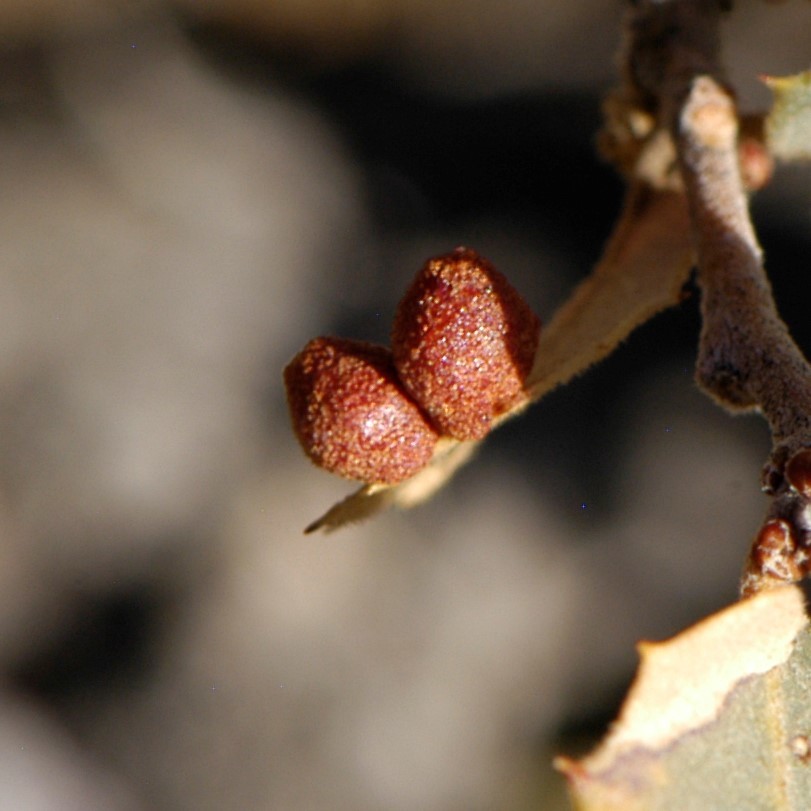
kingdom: Animalia
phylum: Arthropoda
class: Insecta
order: Hymenoptera
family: Cynipidae
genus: Andricus
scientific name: Andricus
